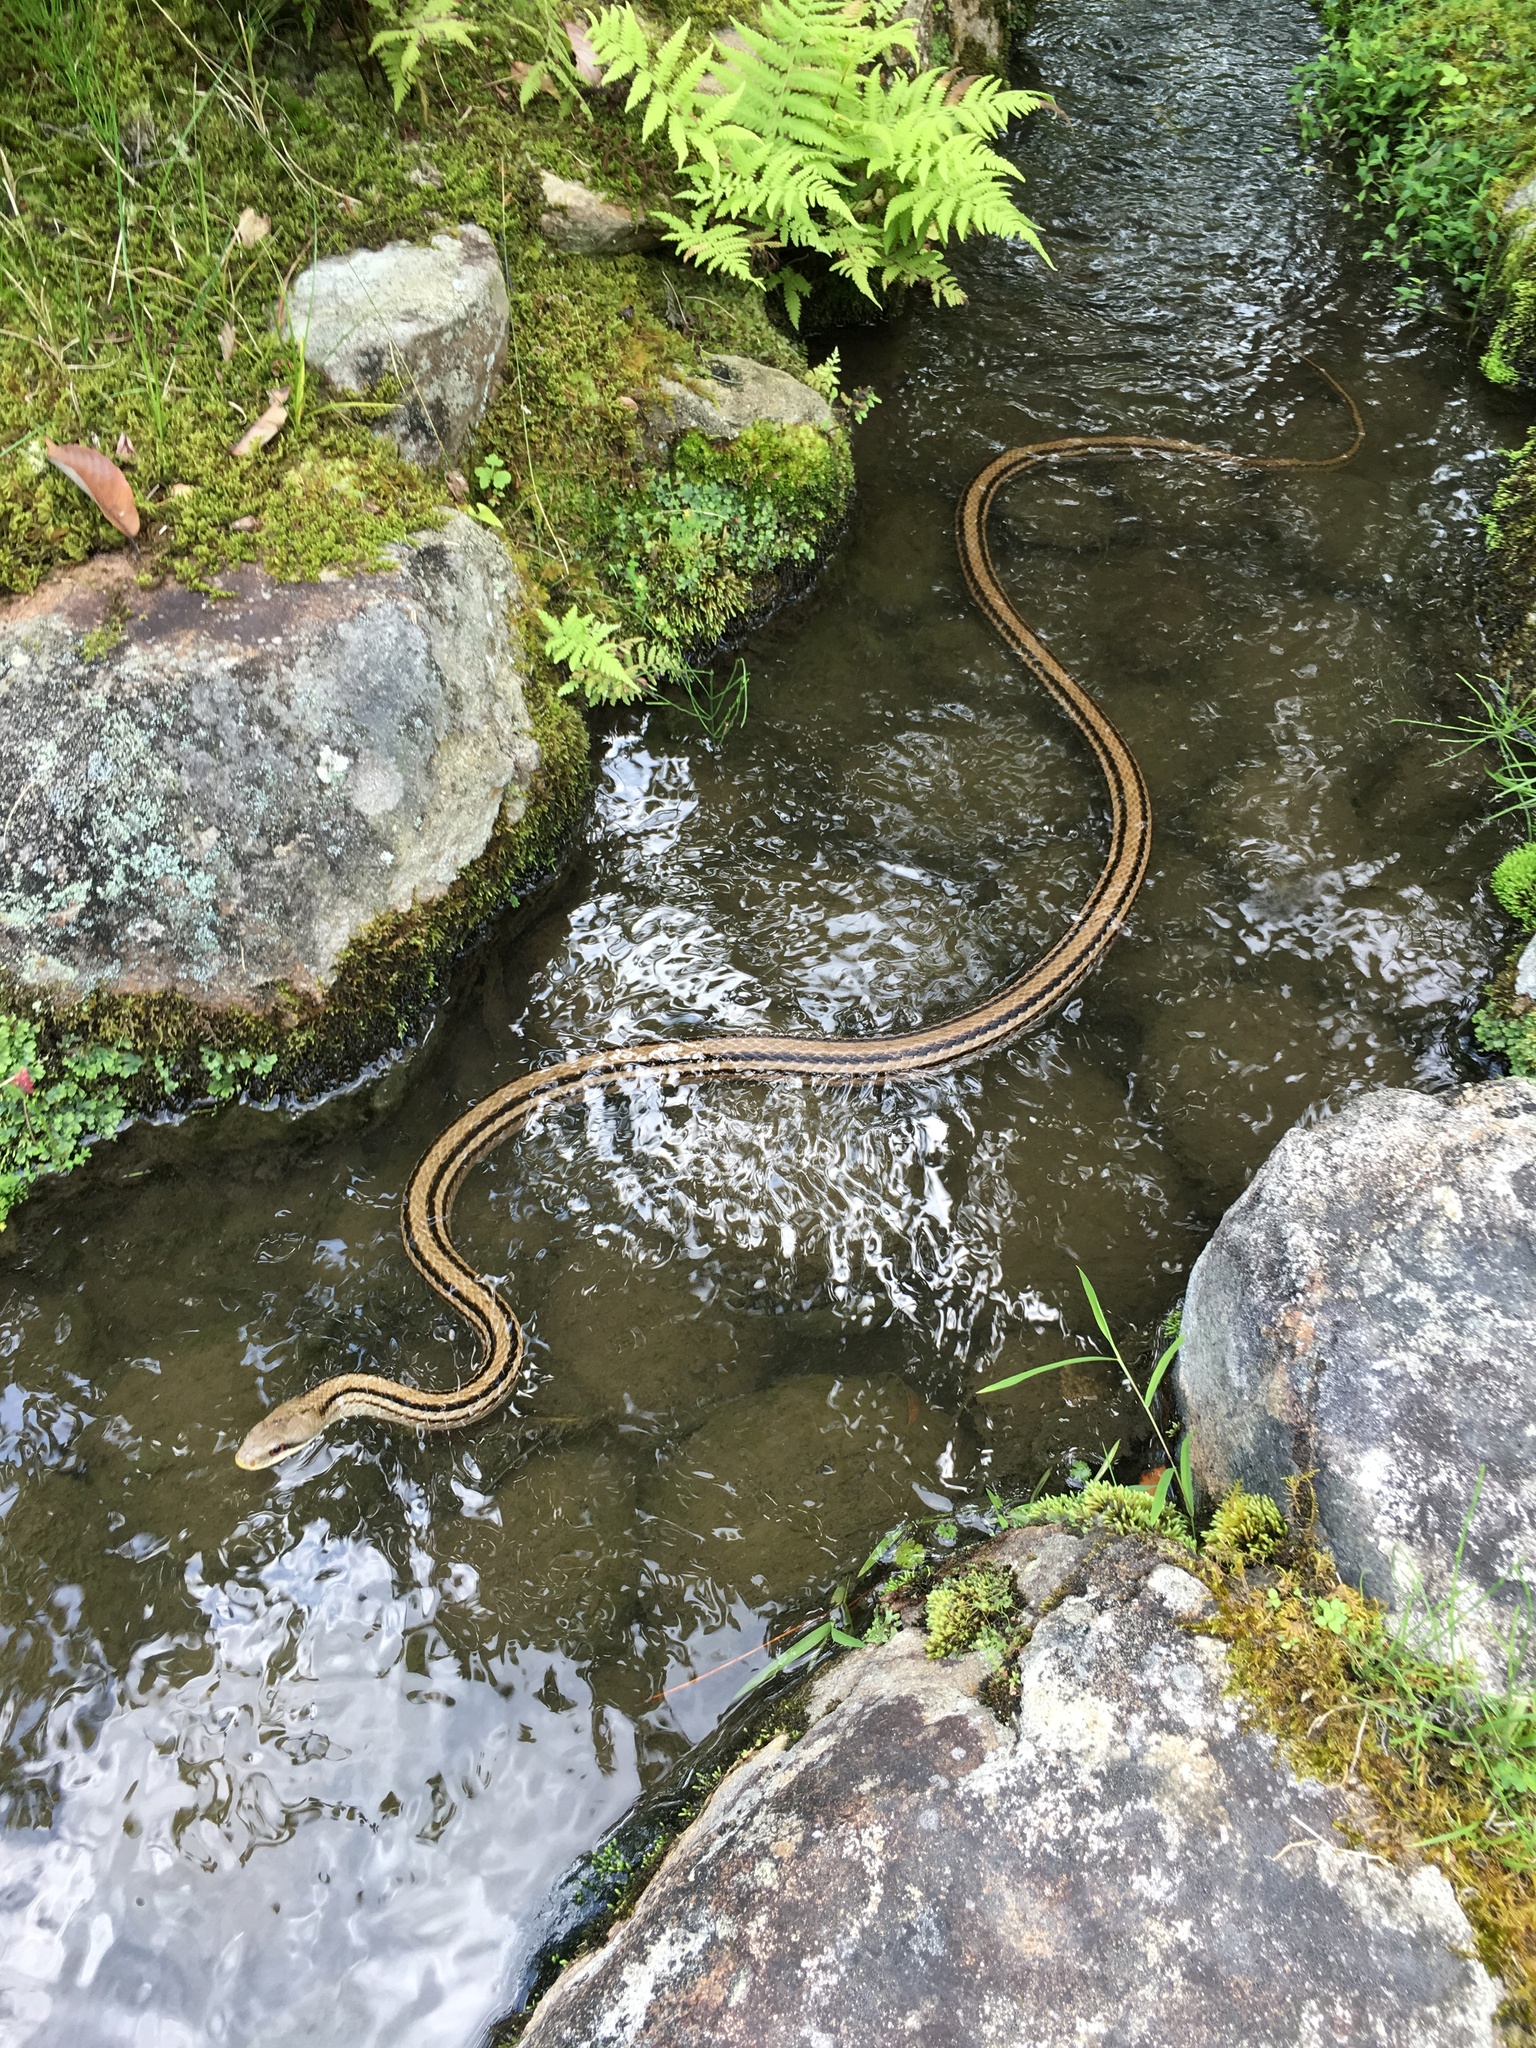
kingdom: Animalia
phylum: Chordata
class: Squamata
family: Colubridae
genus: Elaphe
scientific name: Elaphe quadrivirgata
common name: Japanese four-lined ratsnake
